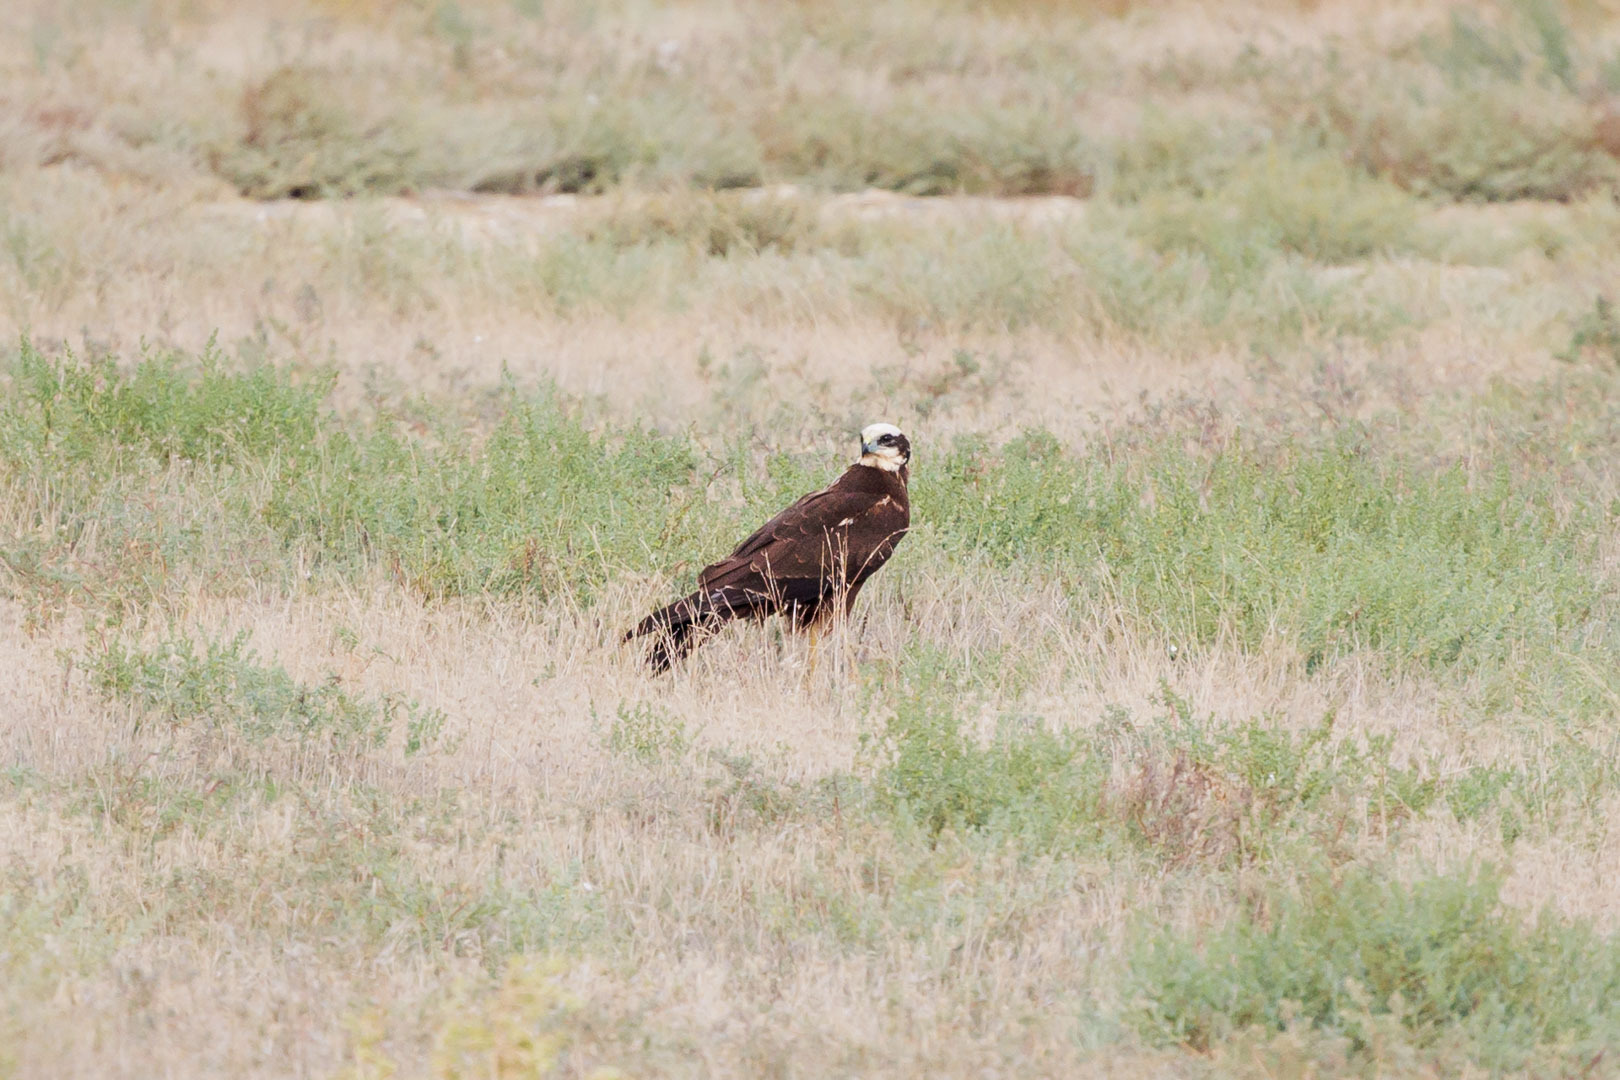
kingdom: Animalia
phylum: Chordata
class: Aves
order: Accipitriformes
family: Accipitridae
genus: Circus
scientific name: Circus aeruginosus
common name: Western marsh harrier
